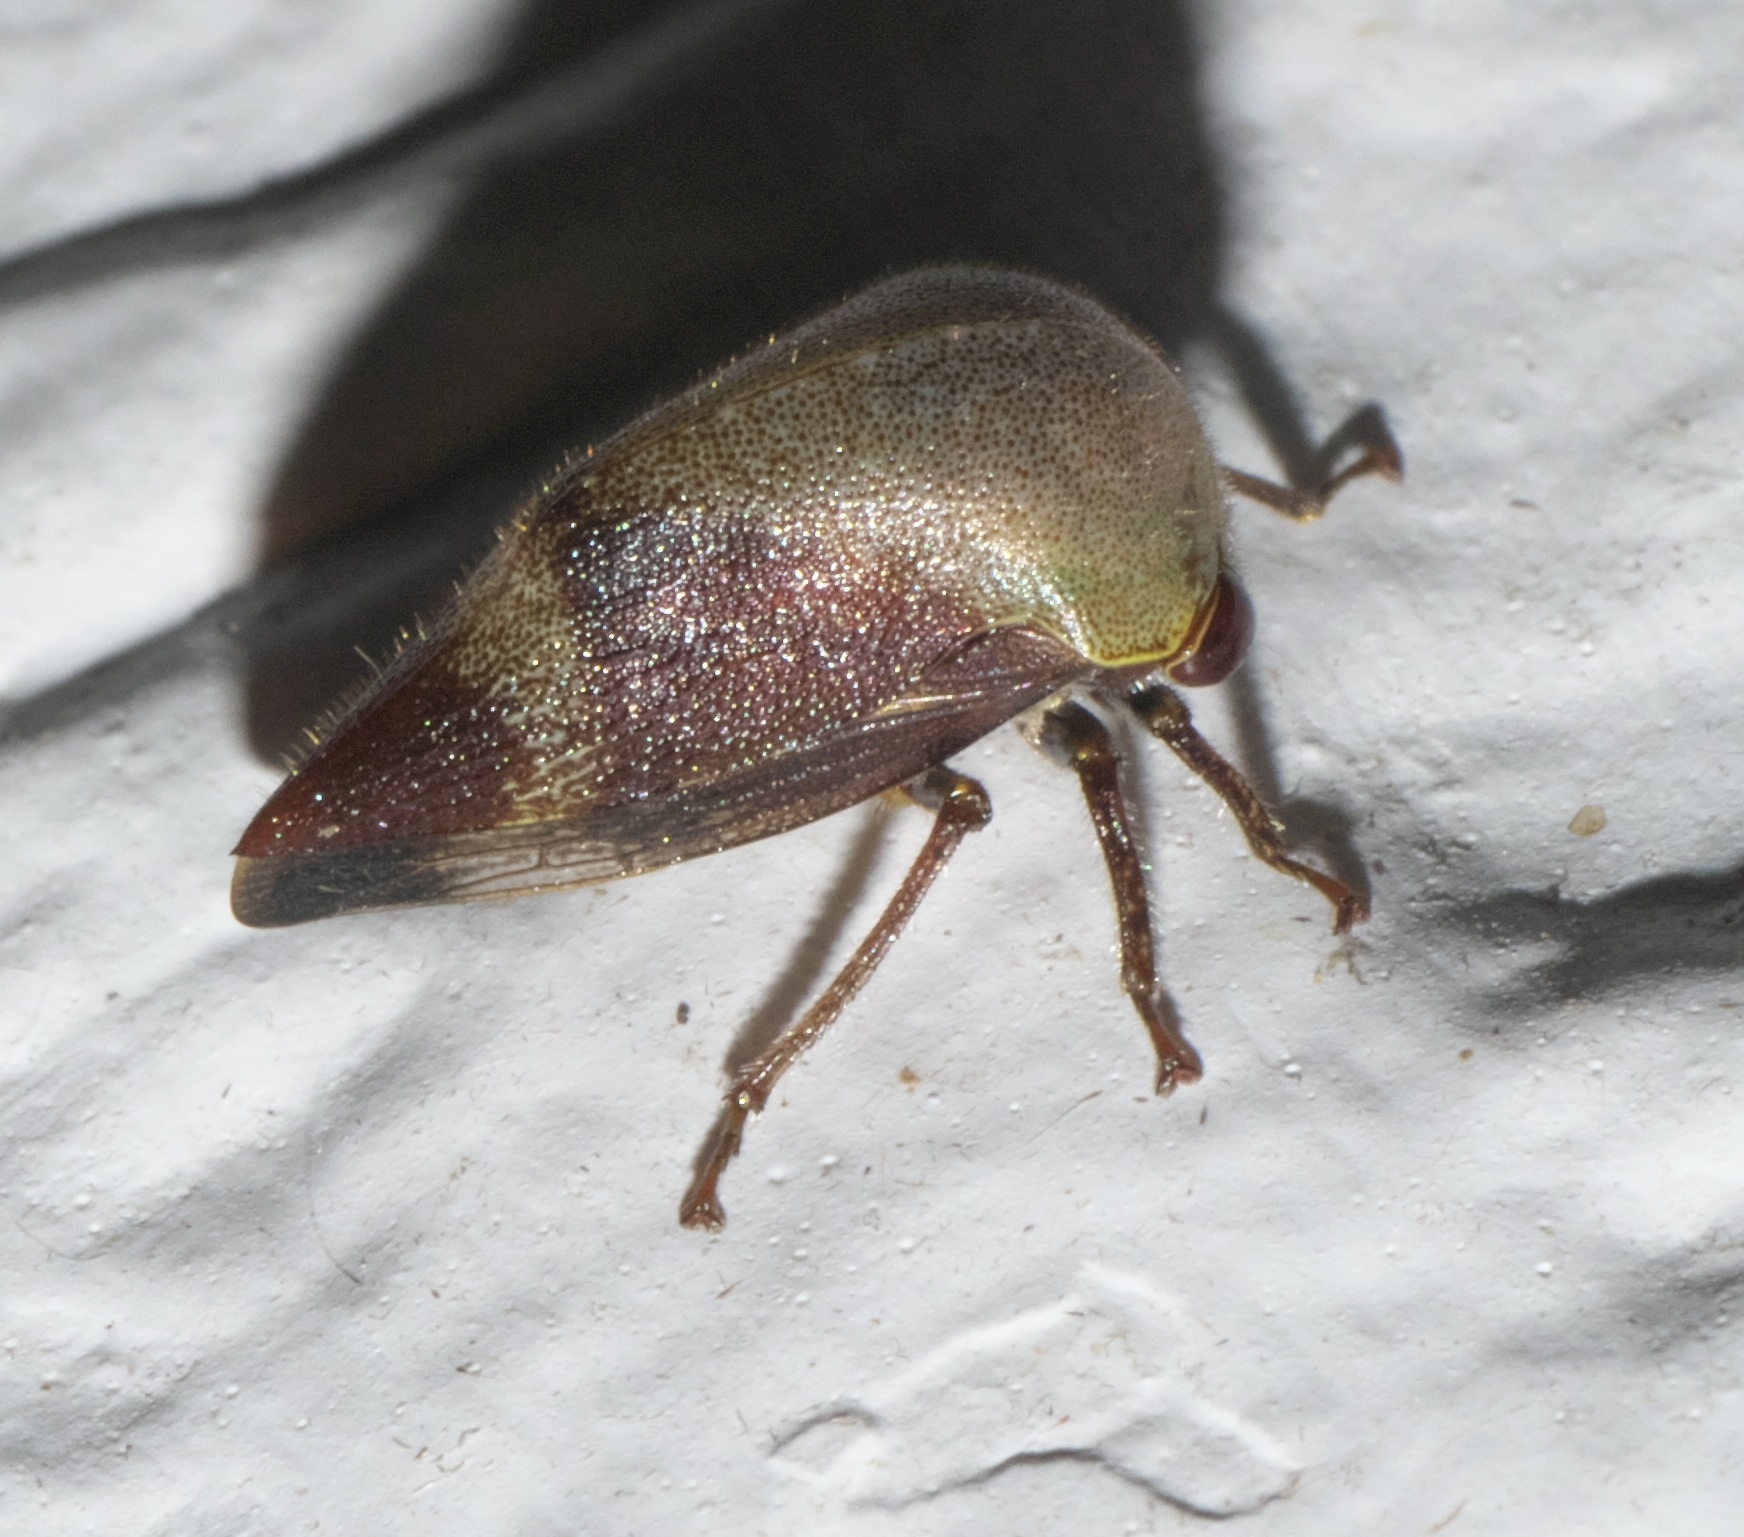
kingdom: Animalia
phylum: Arthropoda
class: Insecta
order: Hemiptera
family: Membracidae
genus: Carynota
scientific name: Carynota mera
